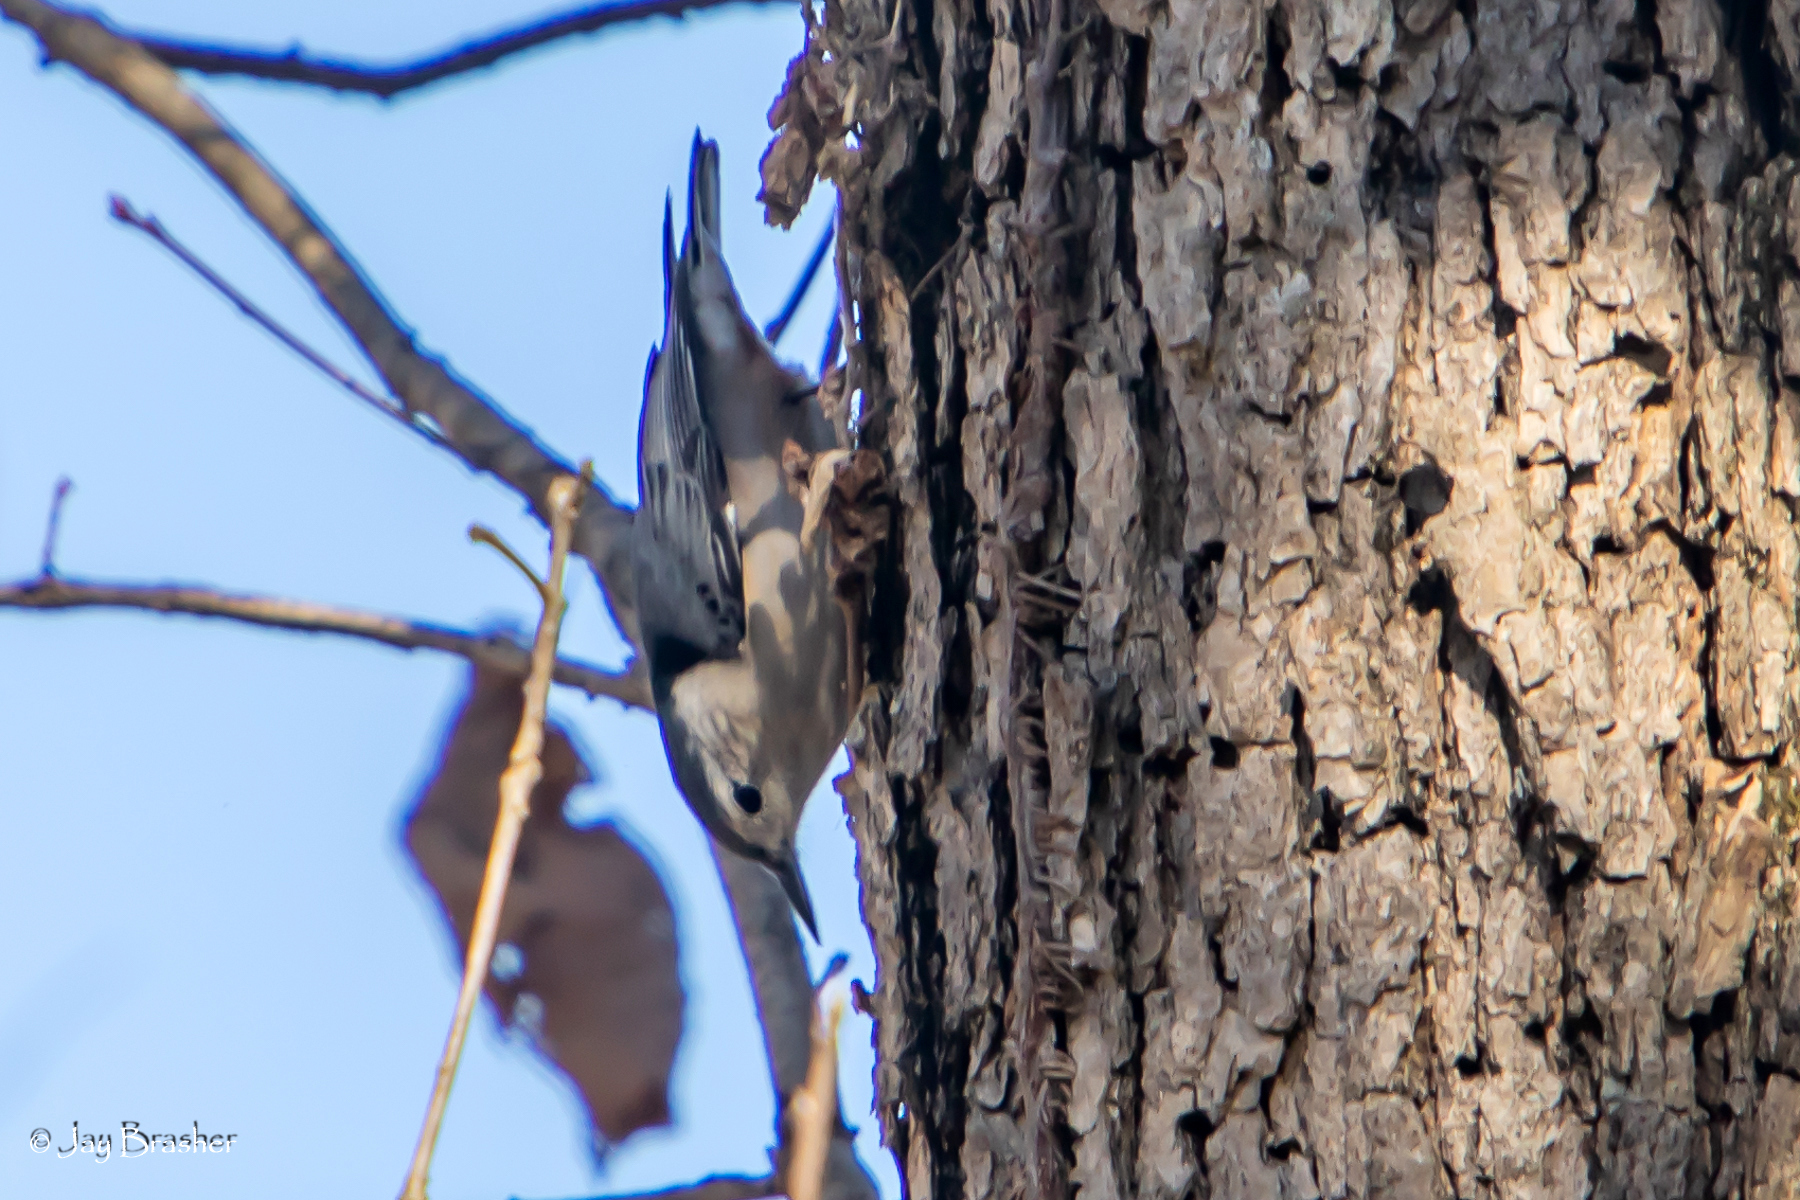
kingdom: Animalia
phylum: Chordata
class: Aves
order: Passeriformes
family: Sittidae
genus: Sitta
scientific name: Sitta carolinensis
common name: White-breasted nuthatch
